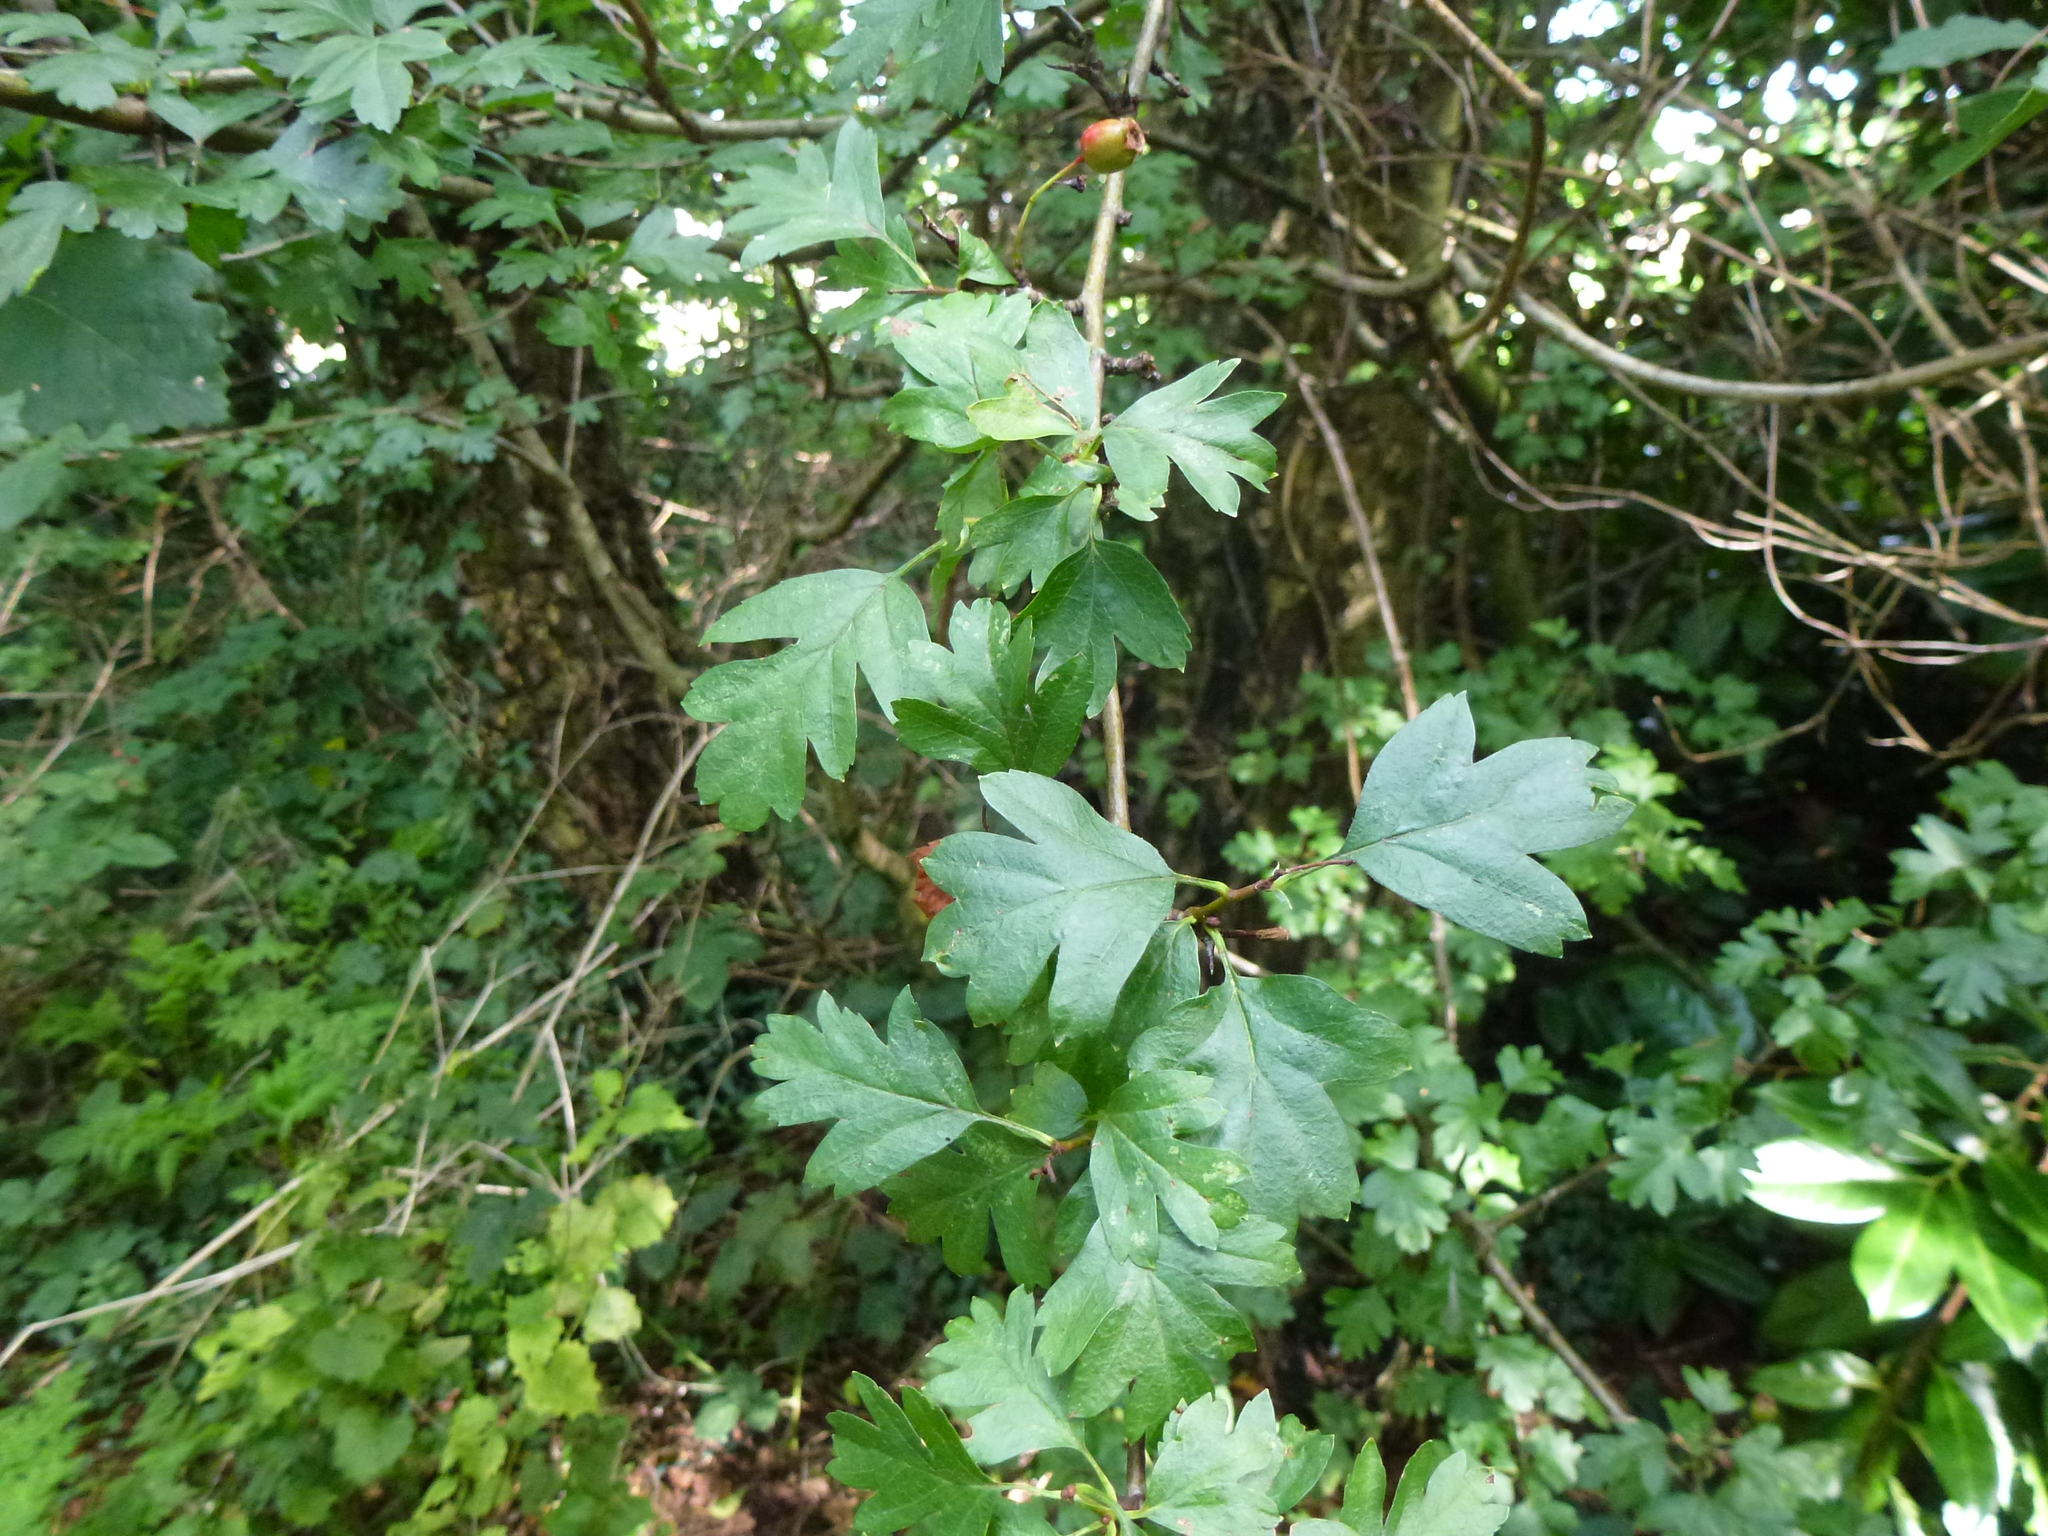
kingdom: Plantae
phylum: Tracheophyta
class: Magnoliopsida
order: Rosales
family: Rosaceae
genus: Crataegus
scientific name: Crataegus monogyna
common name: Hawthorn
